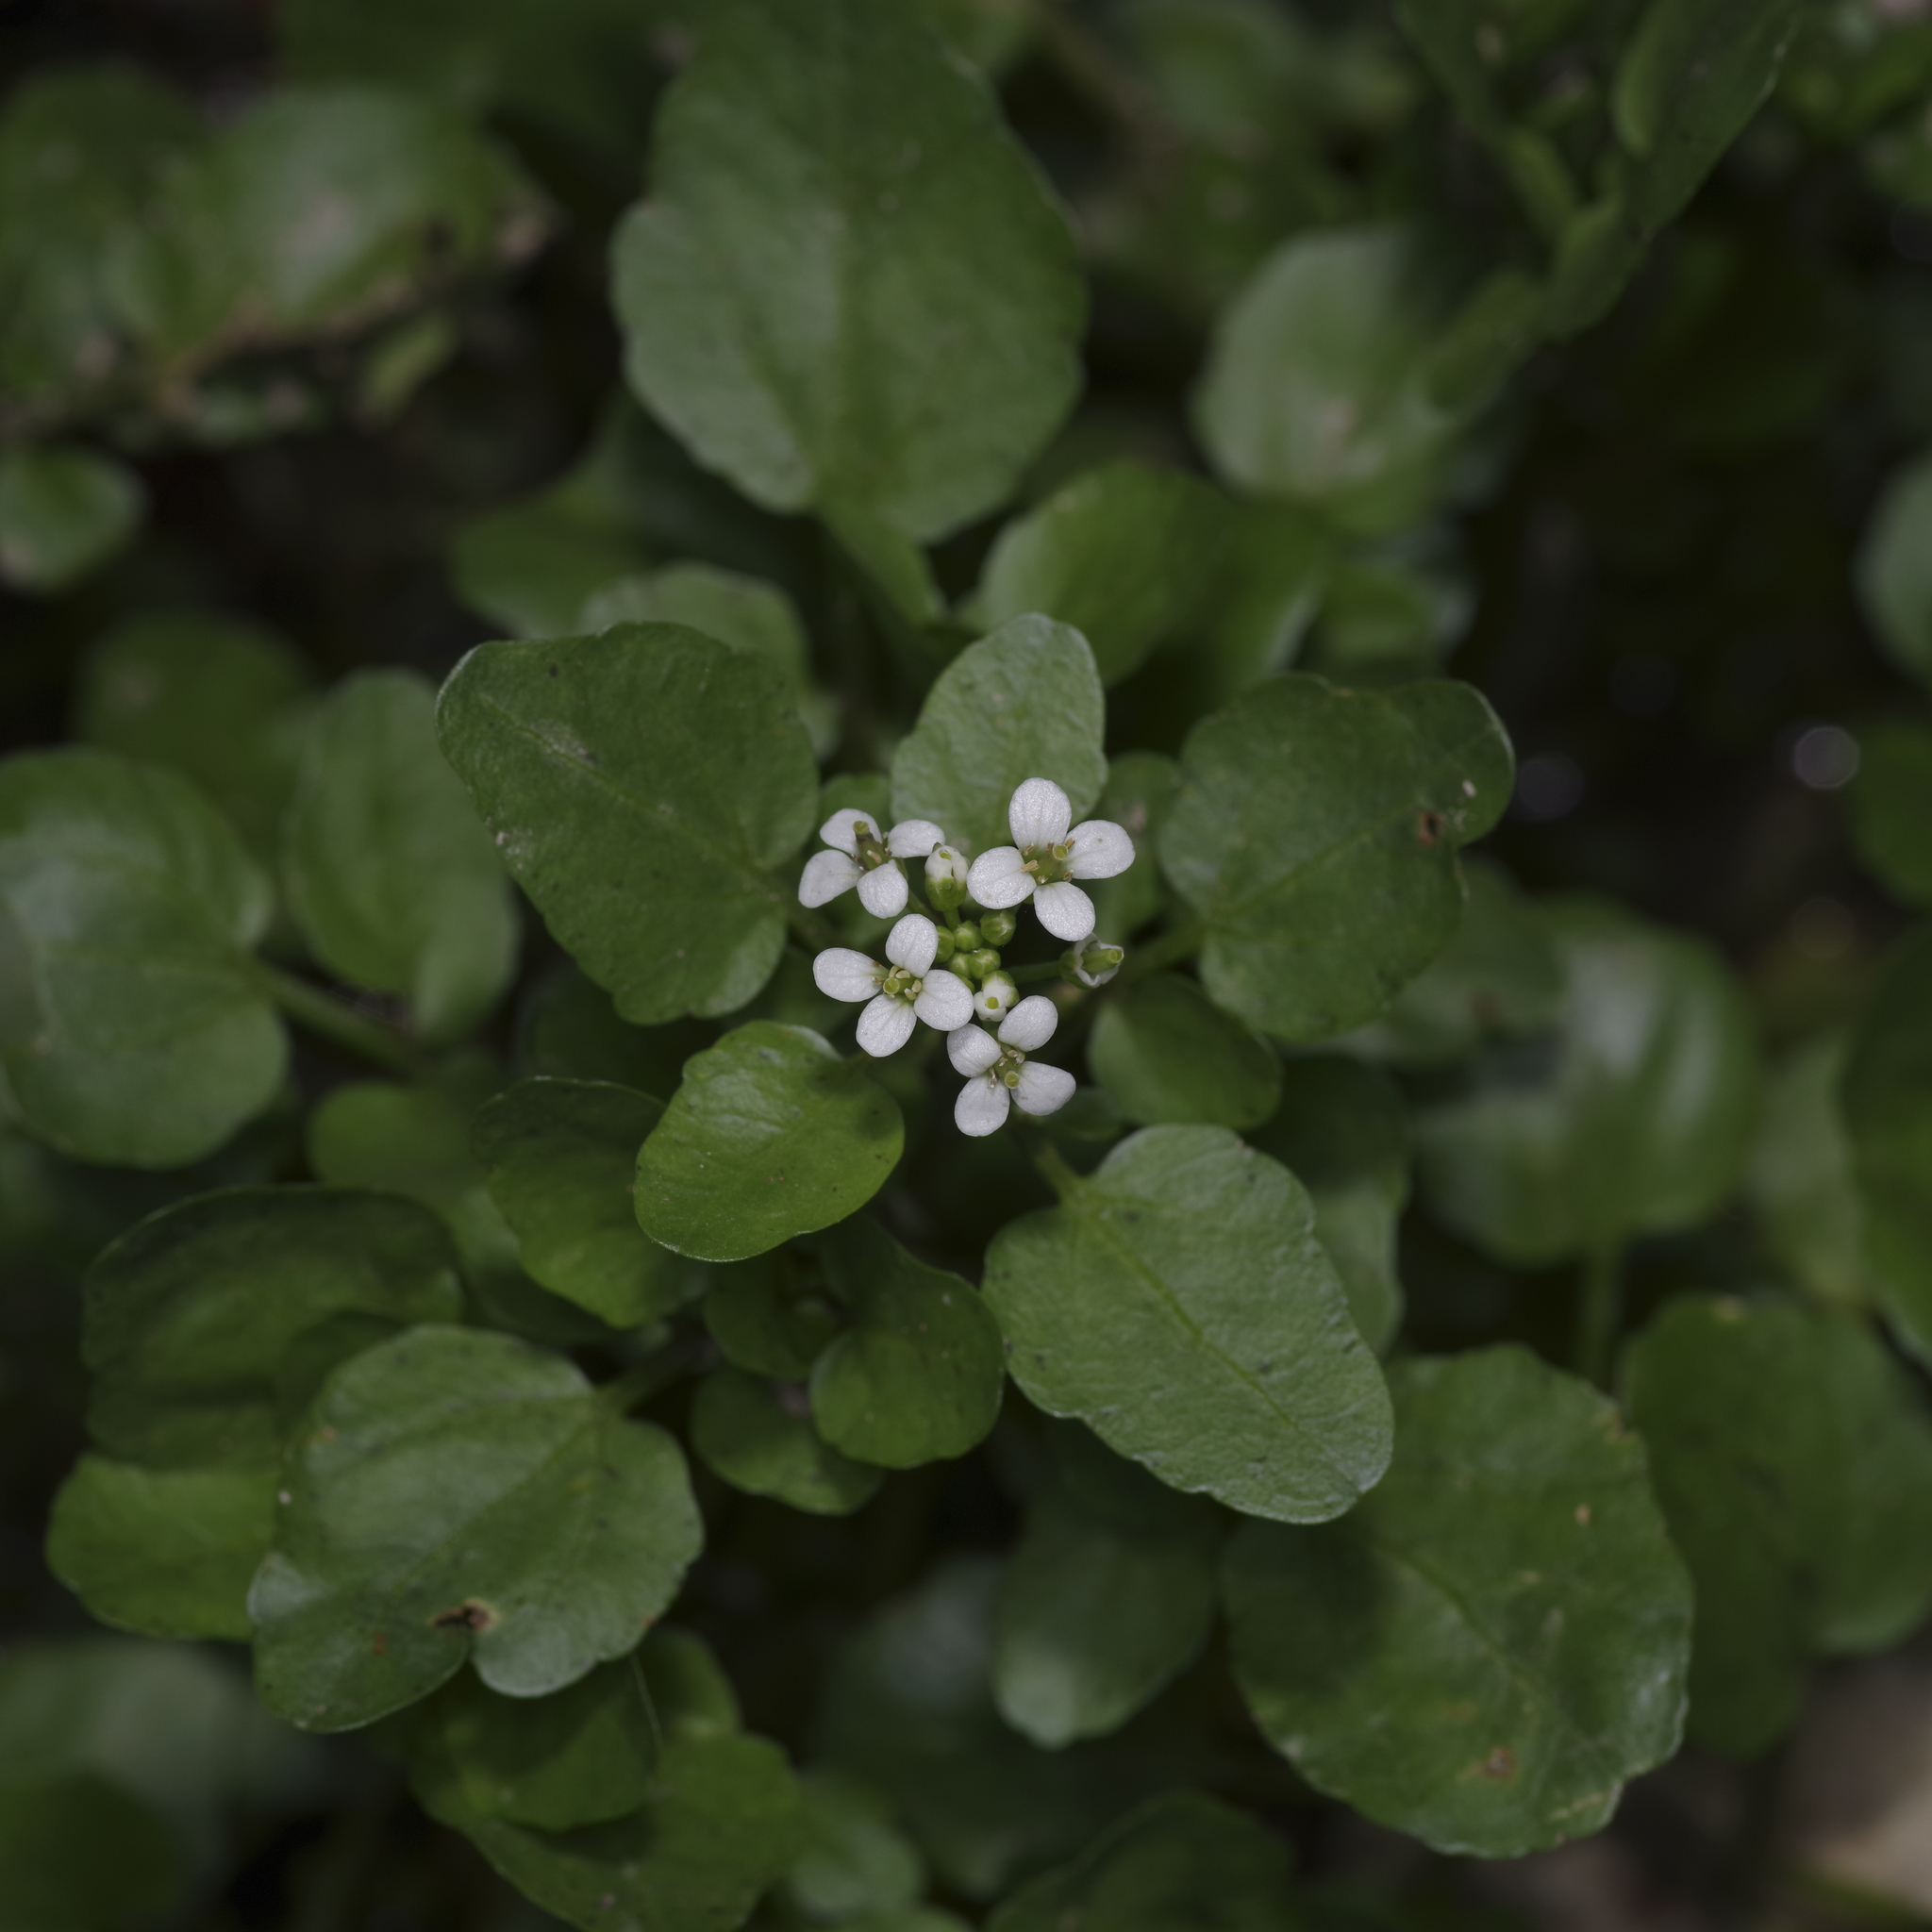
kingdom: Plantae
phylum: Tracheophyta
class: Magnoliopsida
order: Brassicales
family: Brassicaceae
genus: Nasturtium
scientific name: Nasturtium officinale
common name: Watercress
